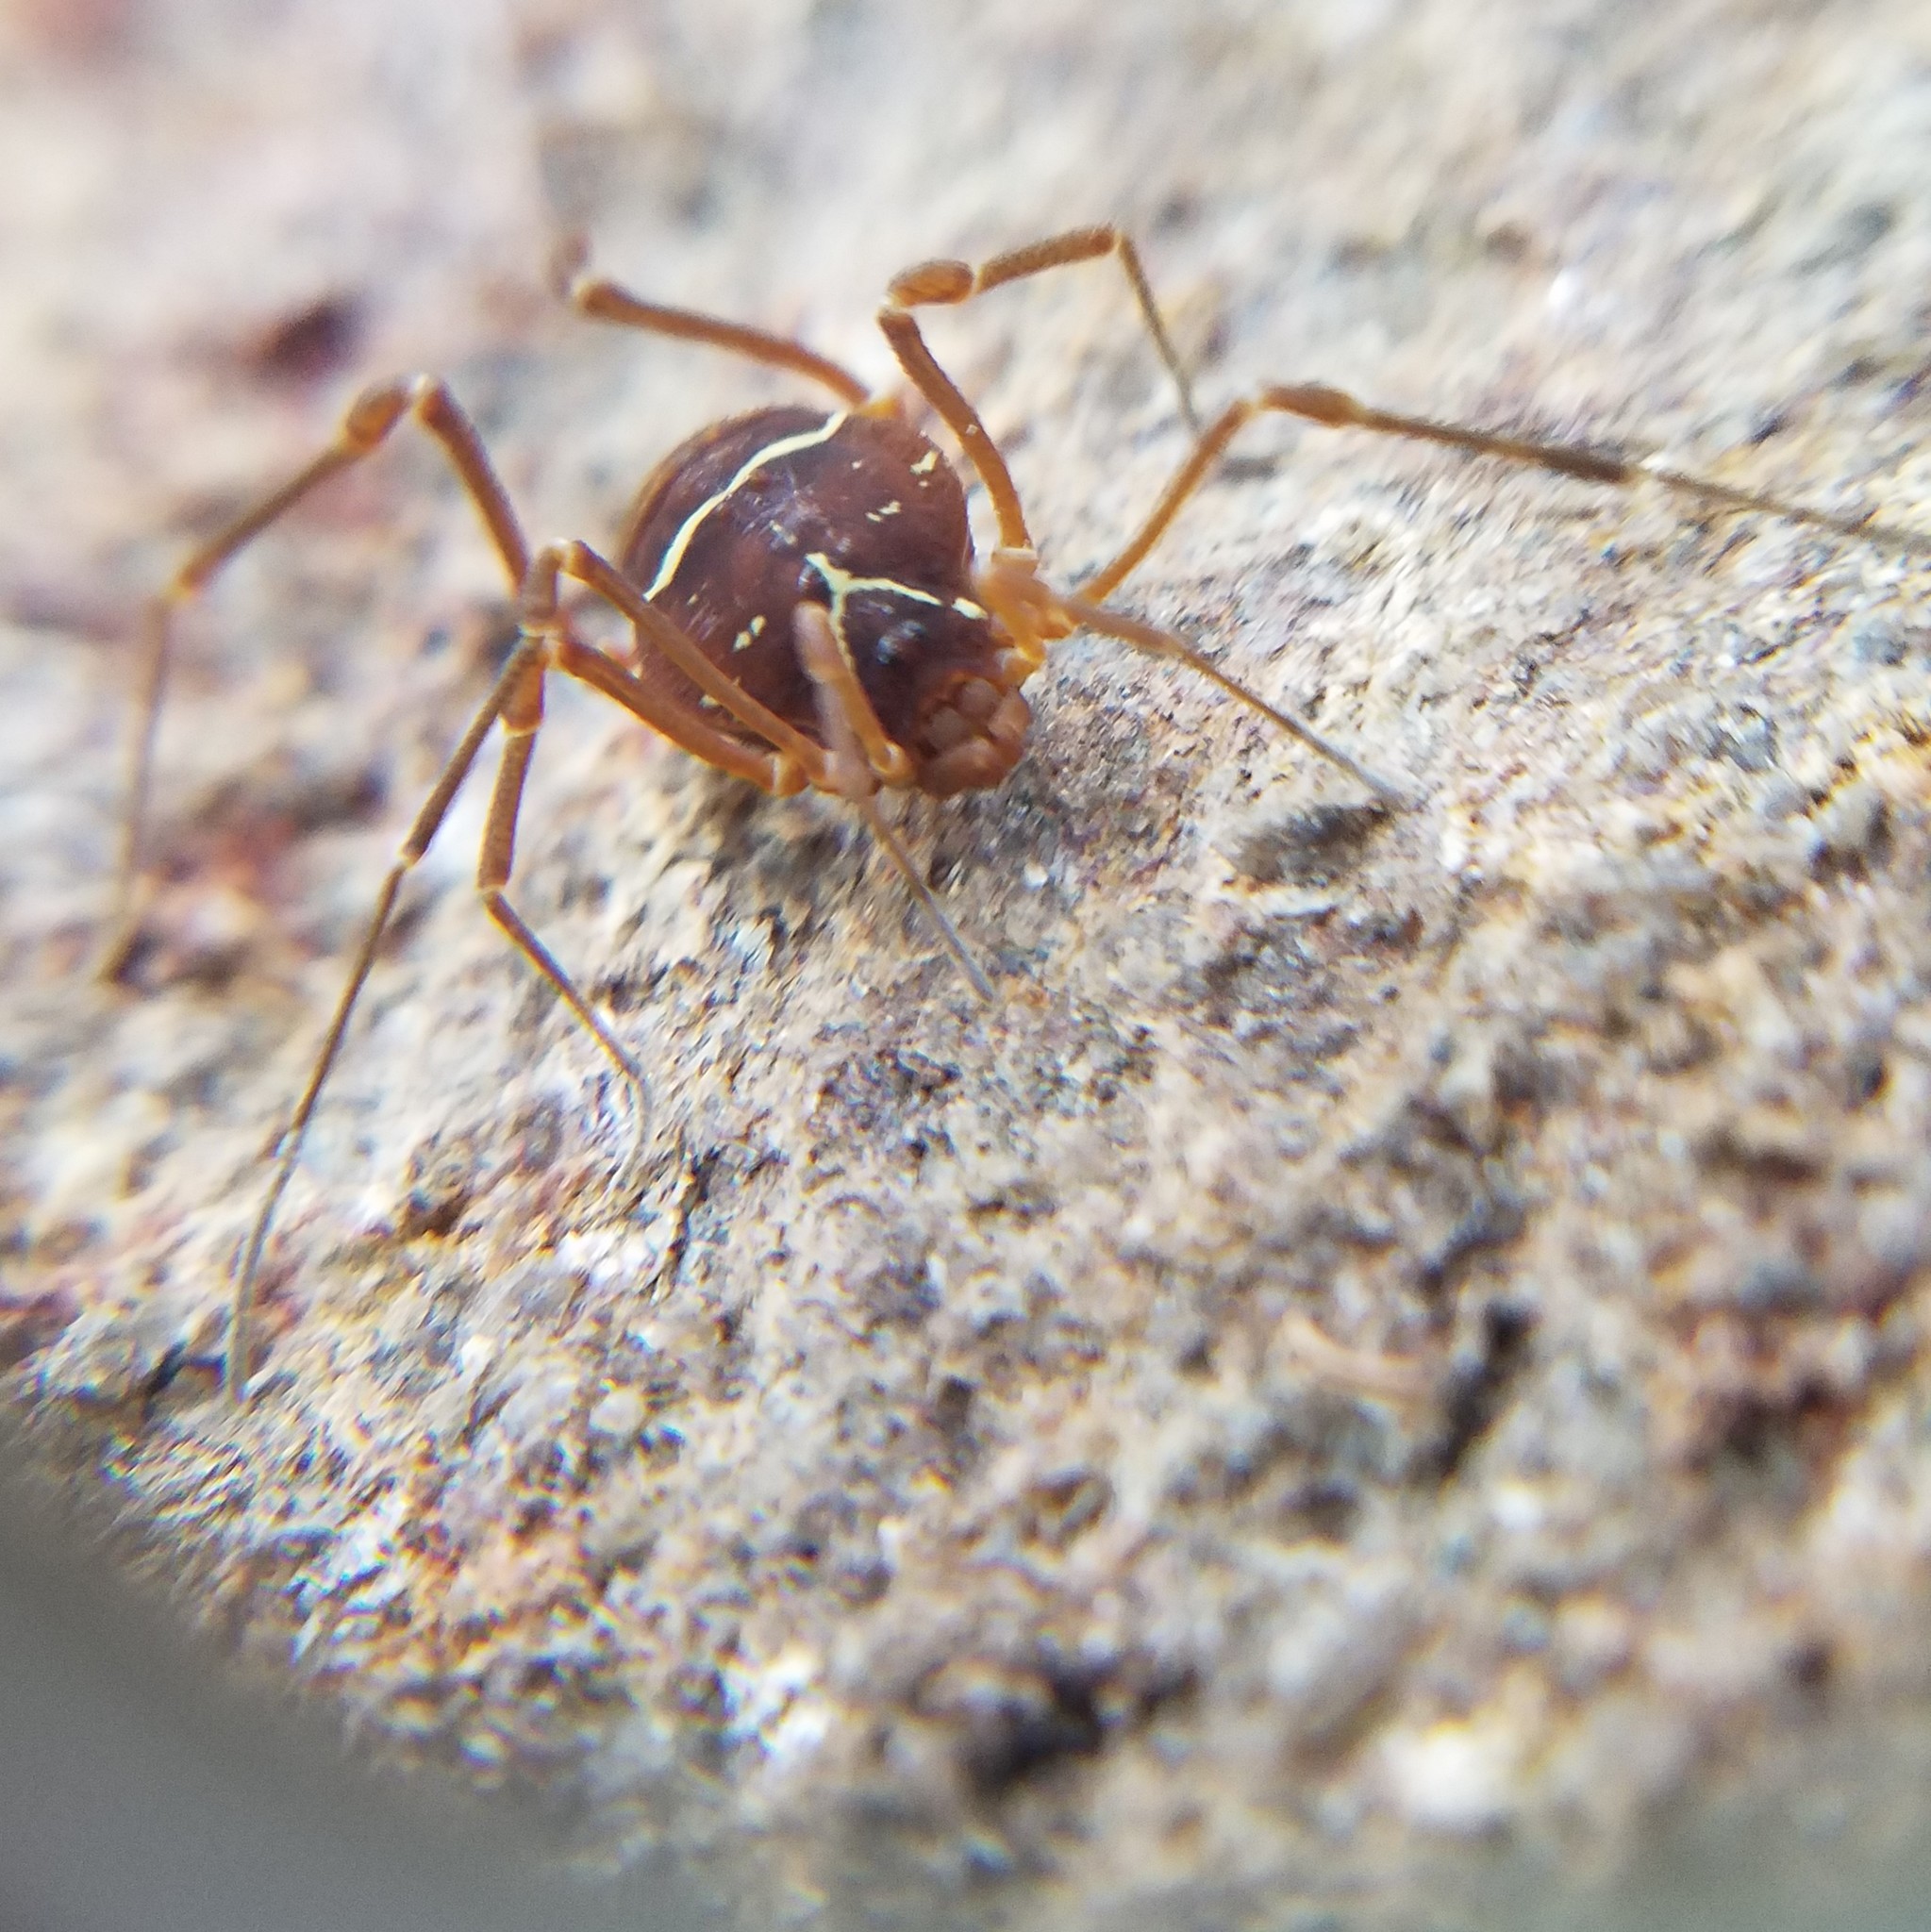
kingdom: Animalia
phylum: Arthropoda
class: Arachnida
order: Opiliones
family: Cosmetidae
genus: Libitioides
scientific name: Libitioides sayi
